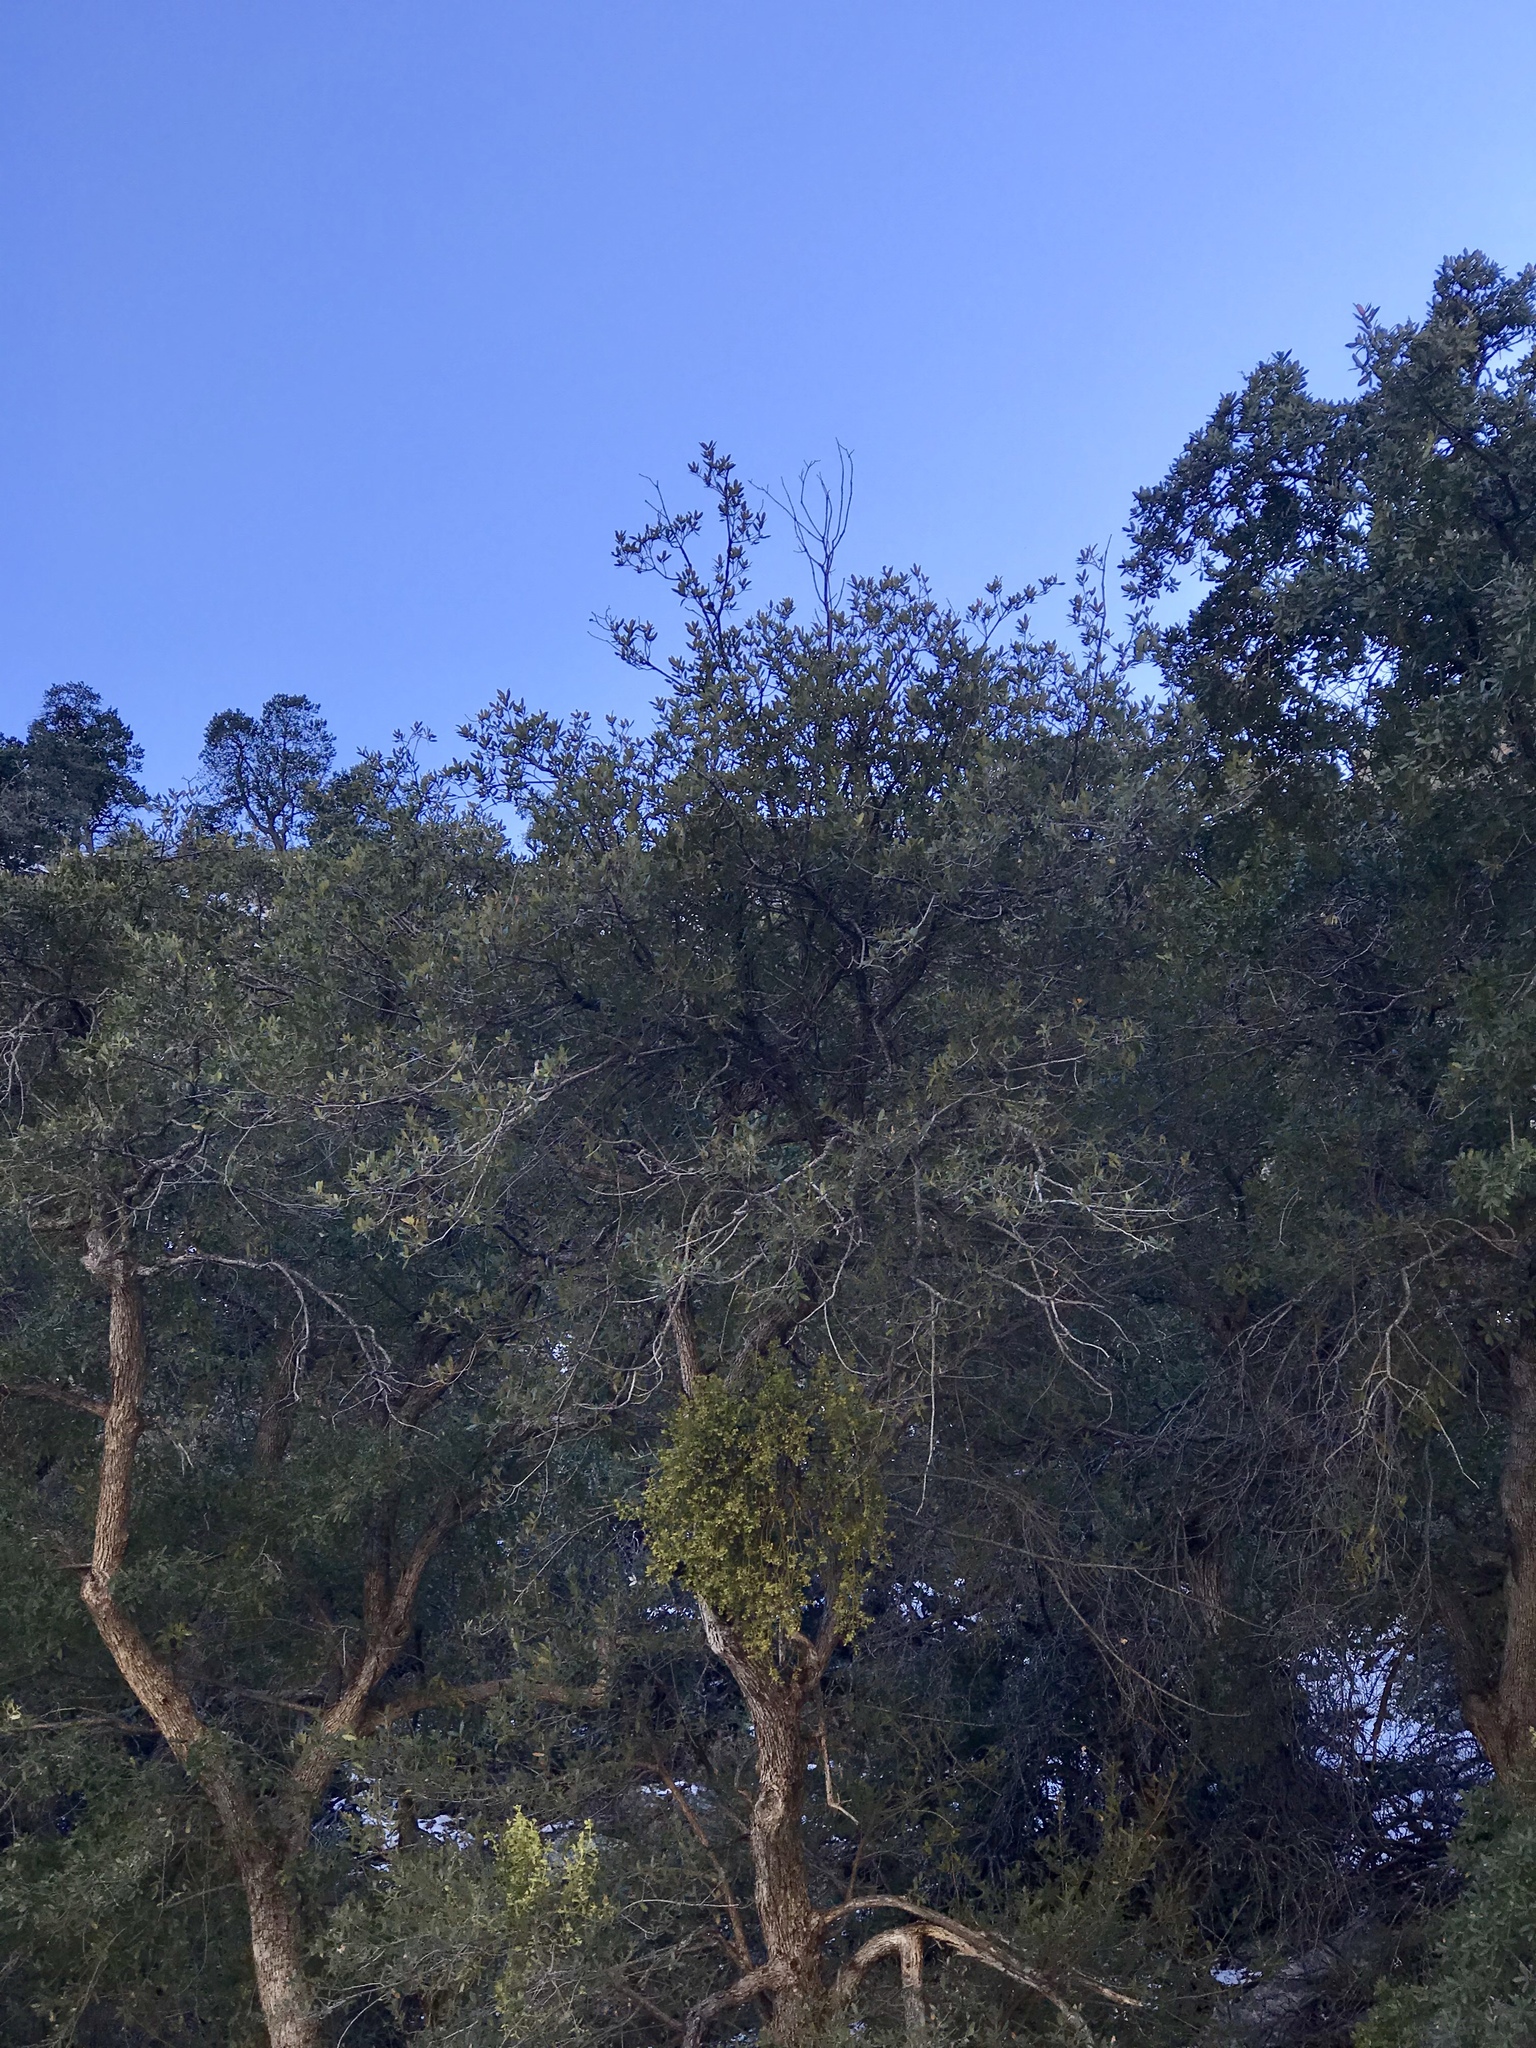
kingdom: Plantae
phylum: Tracheophyta
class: Magnoliopsida
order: Fagales
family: Fagaceae
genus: Quercus
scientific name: Quercus emoryi
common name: Emory oak
